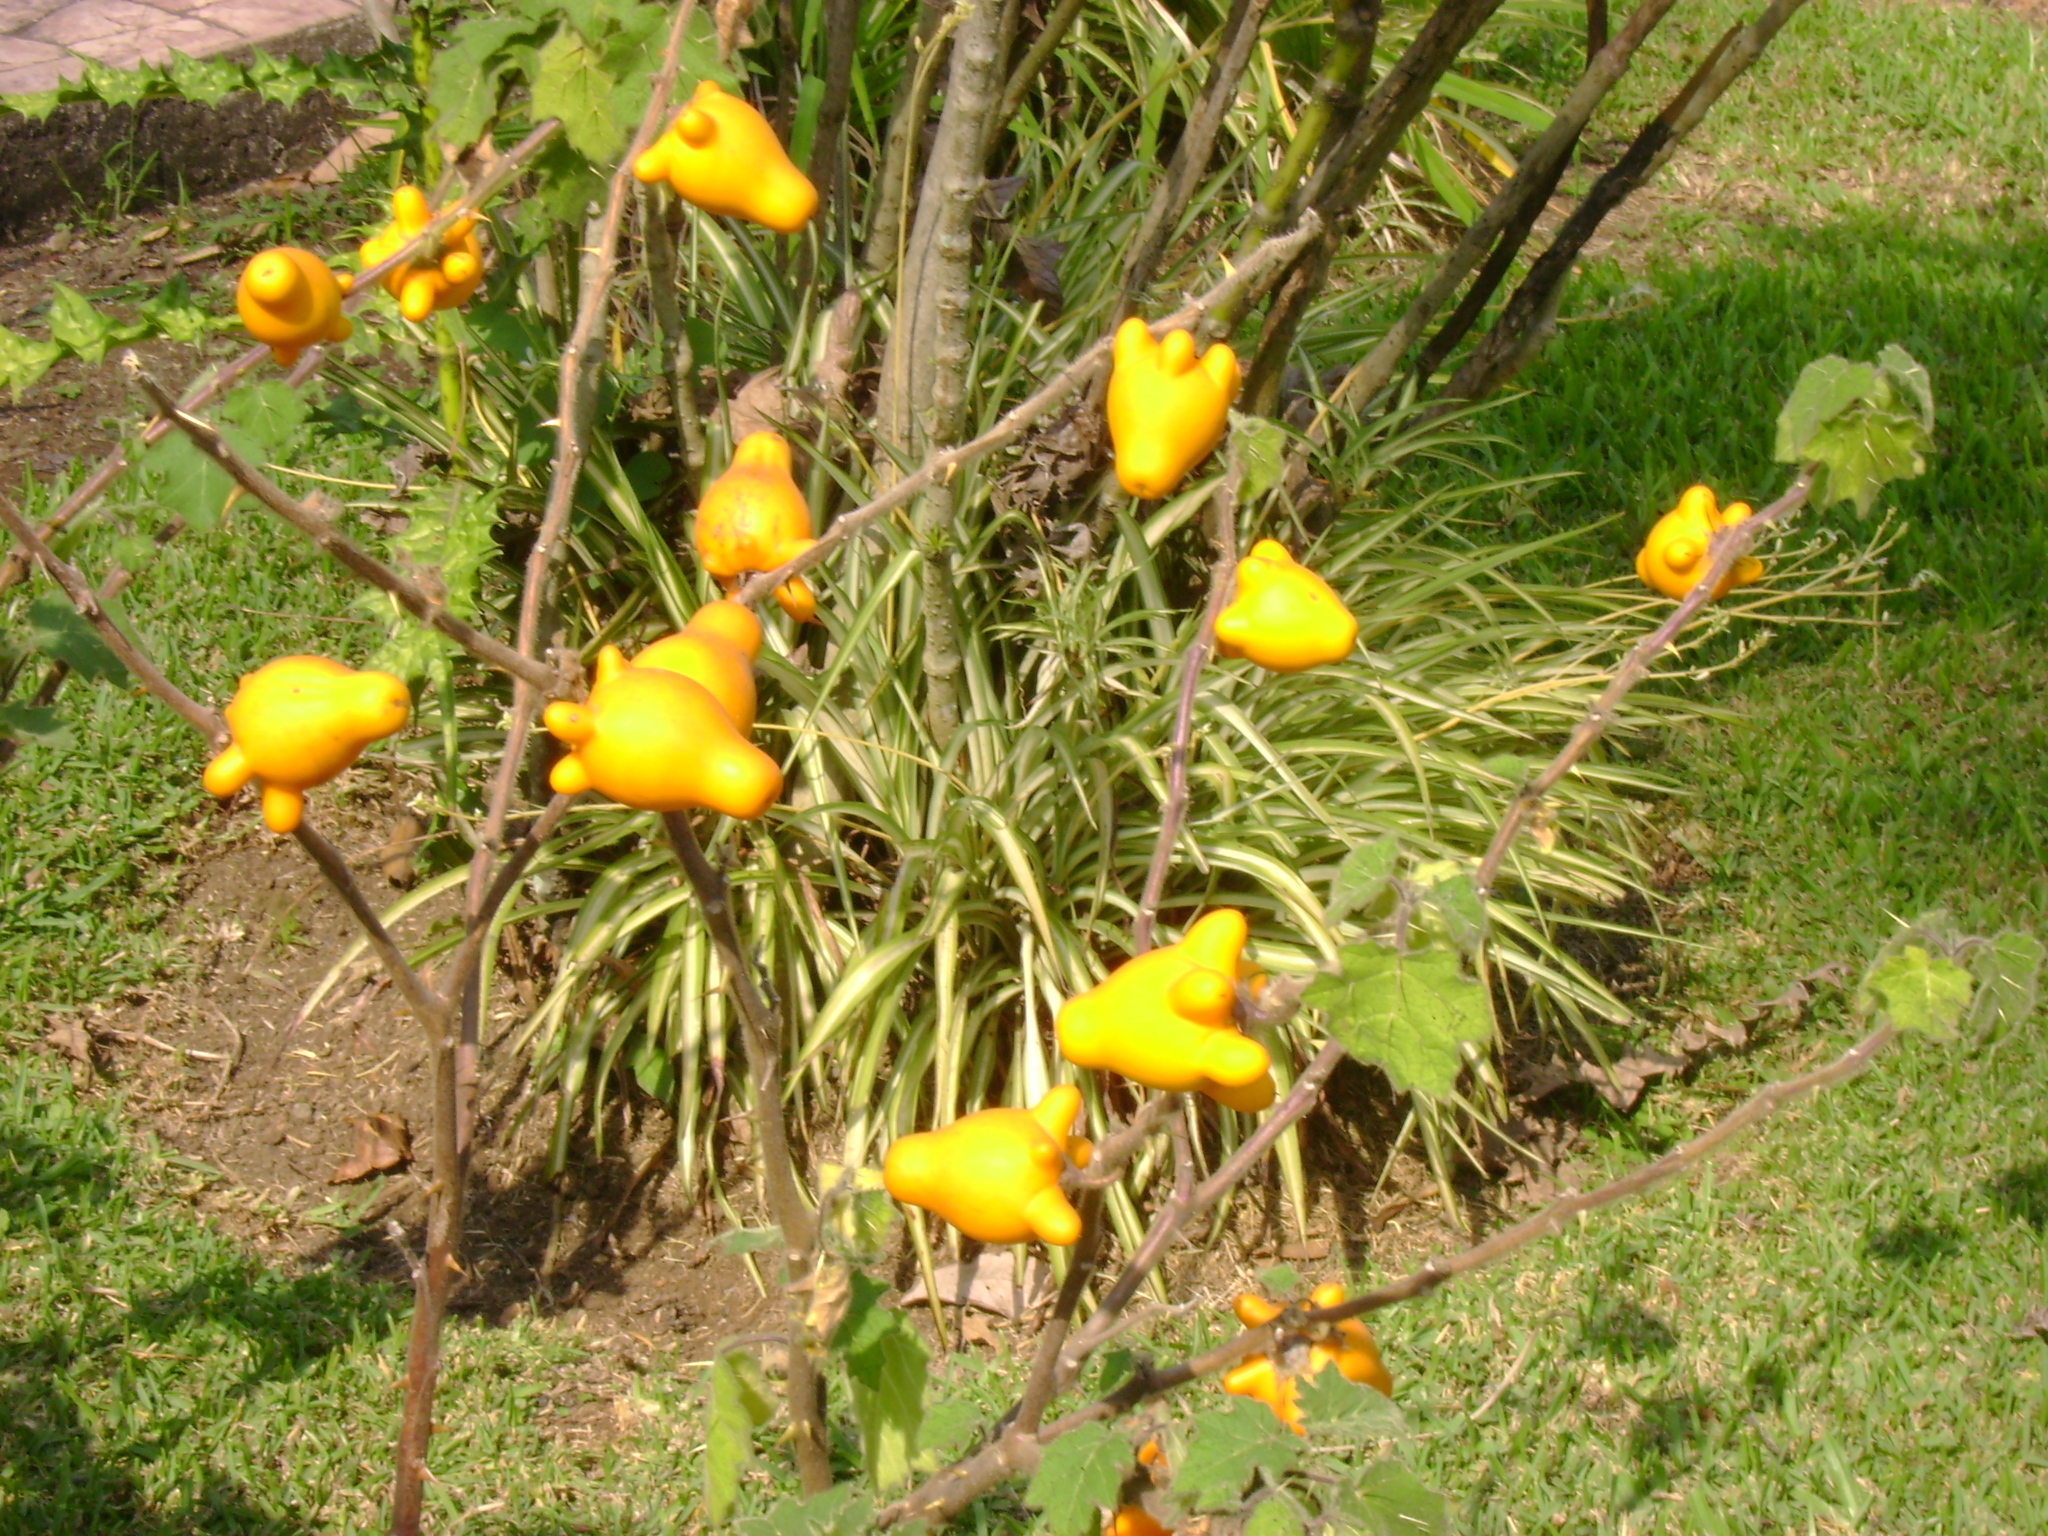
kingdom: Plantae
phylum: Tracheophyta
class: Magnoliopsida
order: Solanales
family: Solanaceae
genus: Solanum
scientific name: Solanum mammosum
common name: Nipple fruit
